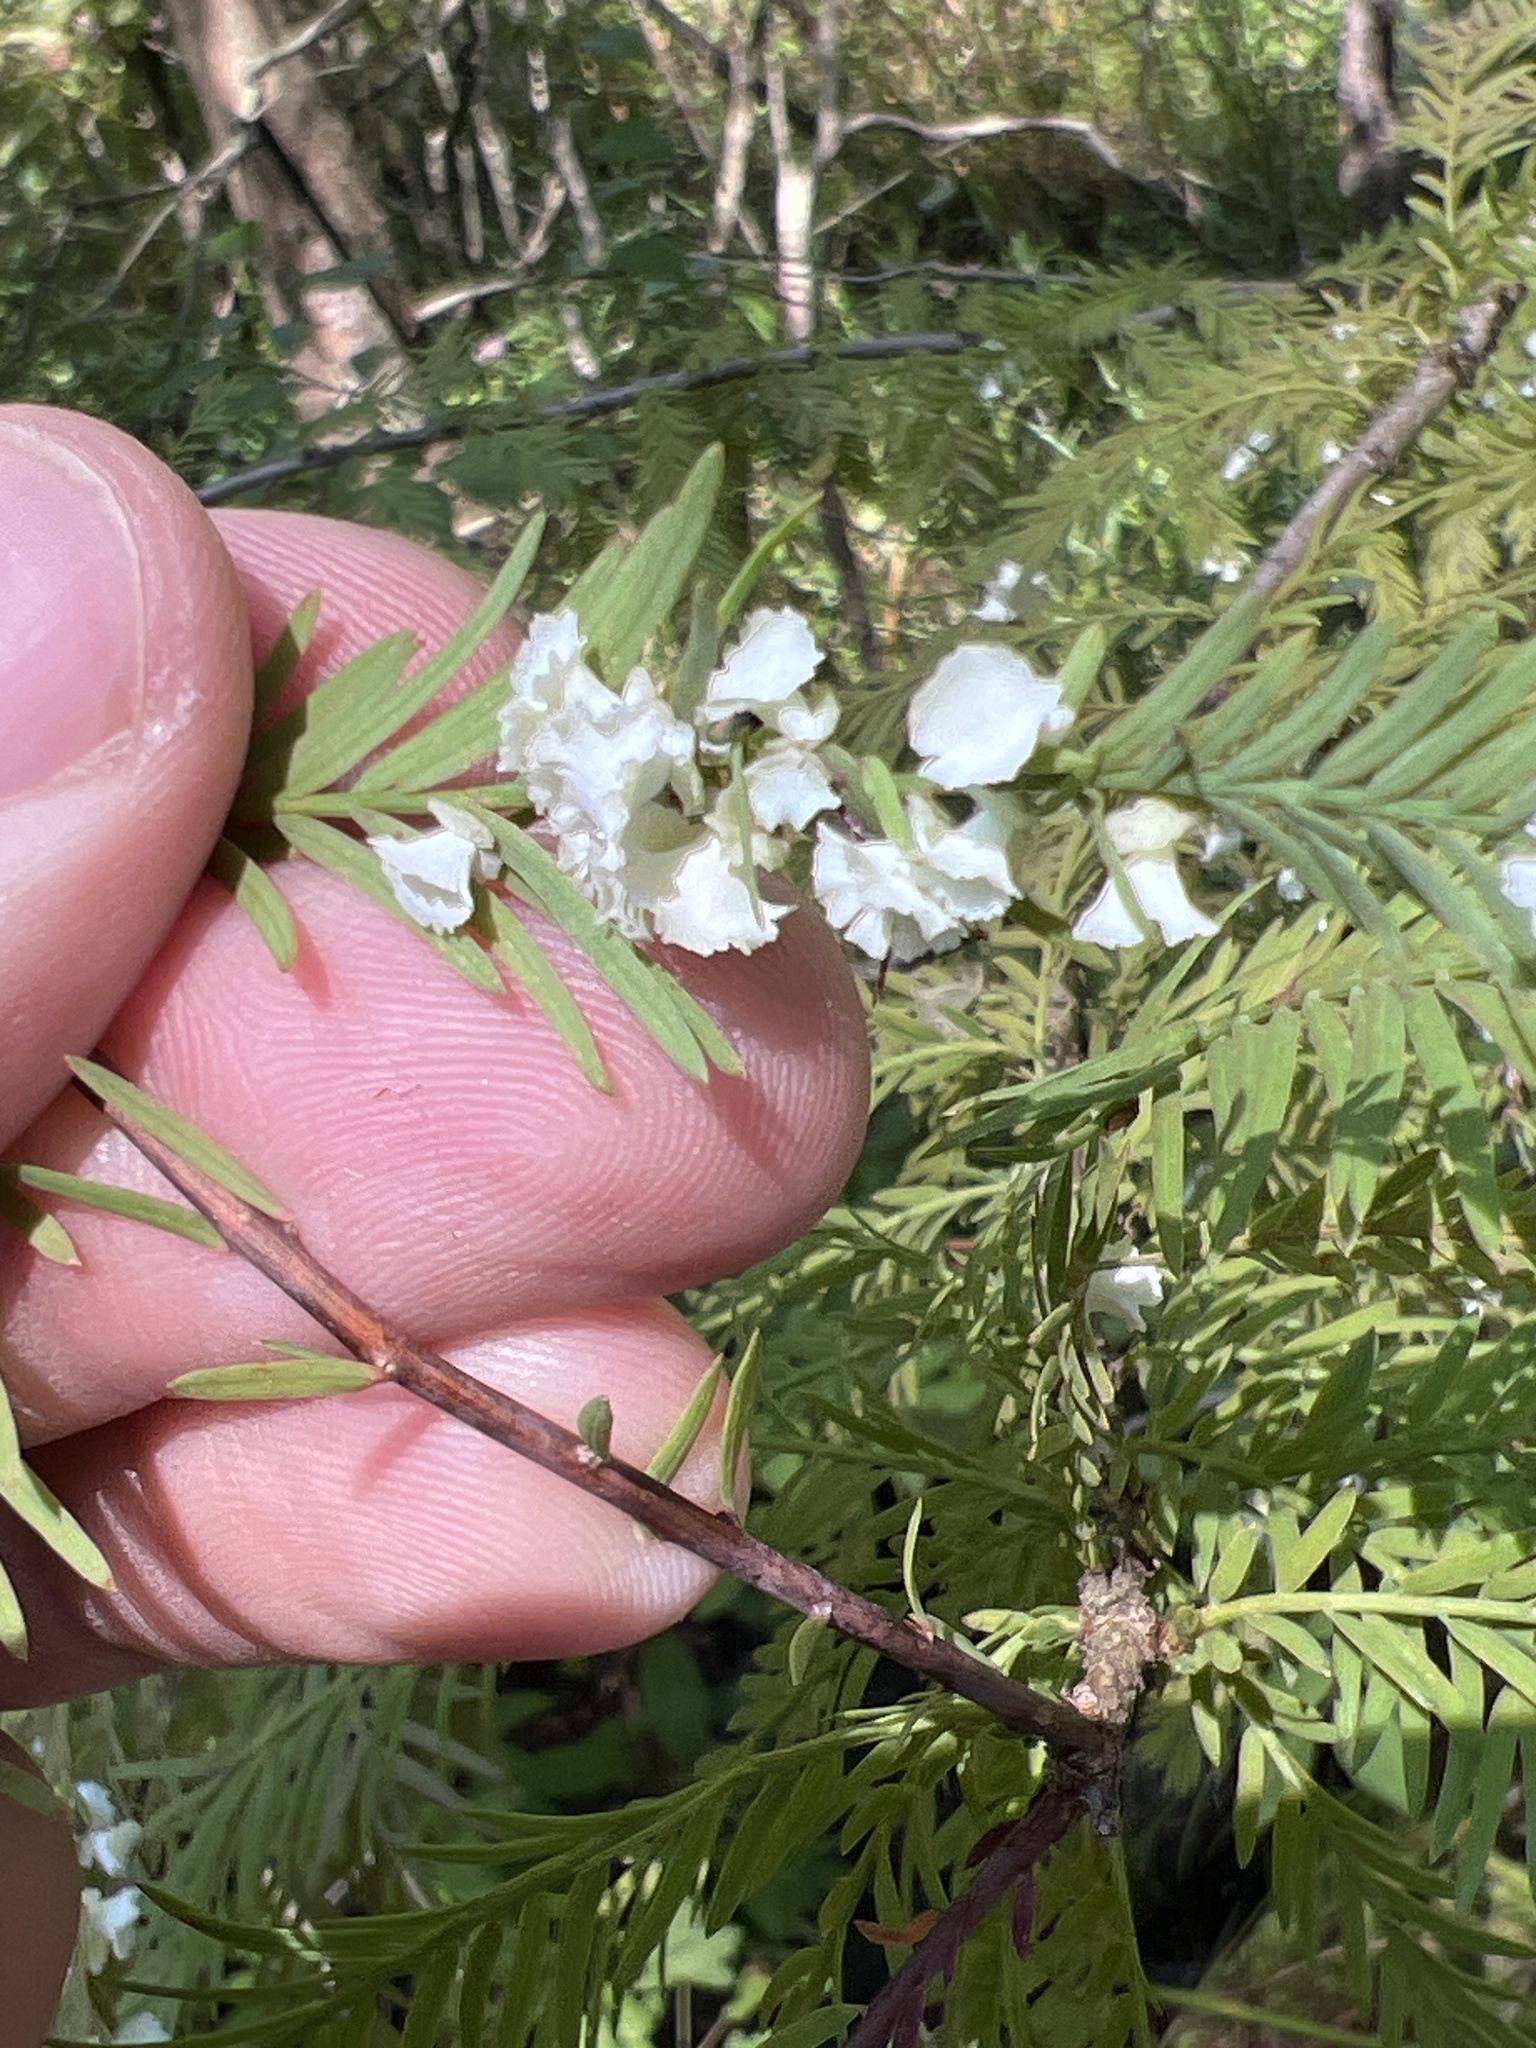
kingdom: Animalia
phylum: Arthropoda
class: Insecta
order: Diptera
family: Cecidomyiidae
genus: Taxodiomyia
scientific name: Taxodiomyia cupressi
